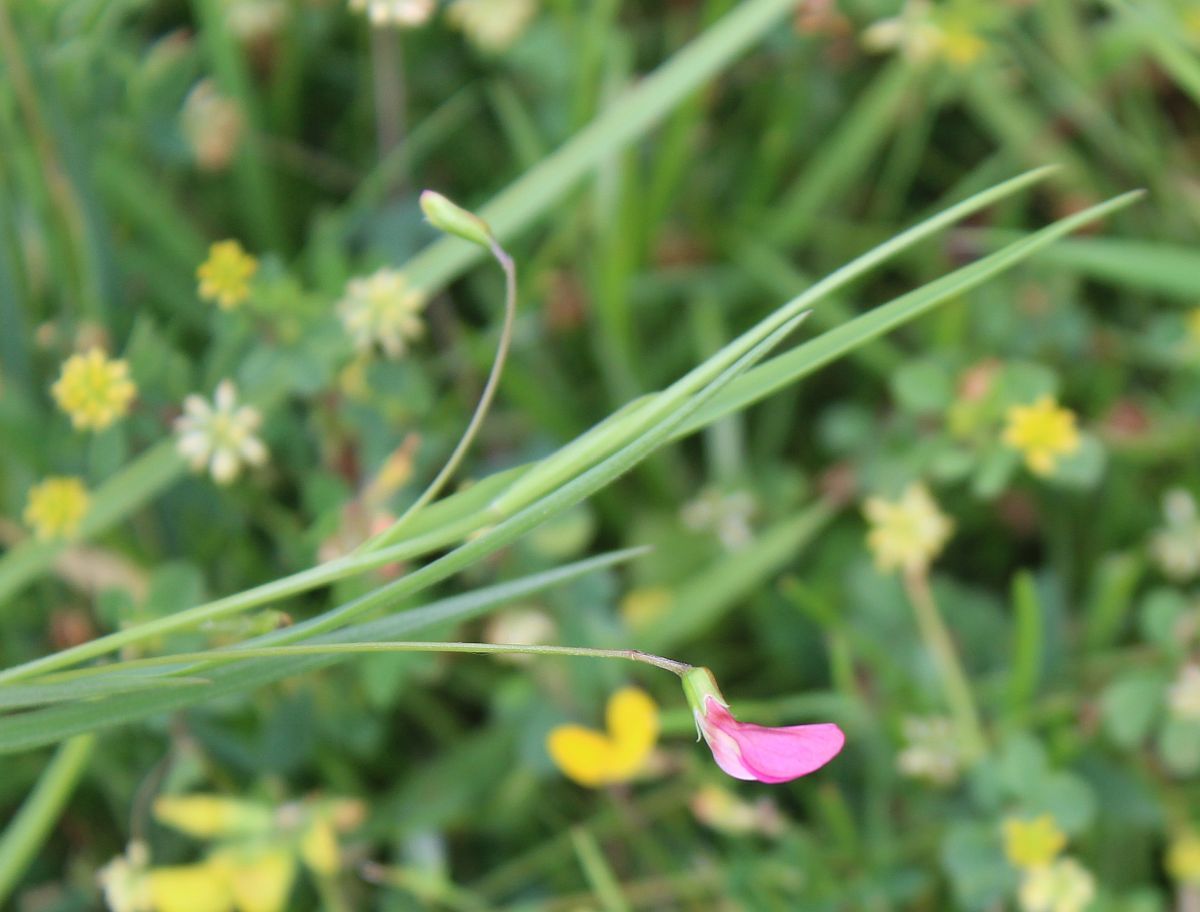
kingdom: Plantae
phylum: Tracheophyta
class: Magnoliopsida
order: Fabales
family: Fabaceae
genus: Lathyrus
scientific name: Lathyrus nissolia
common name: Grass vetchling
